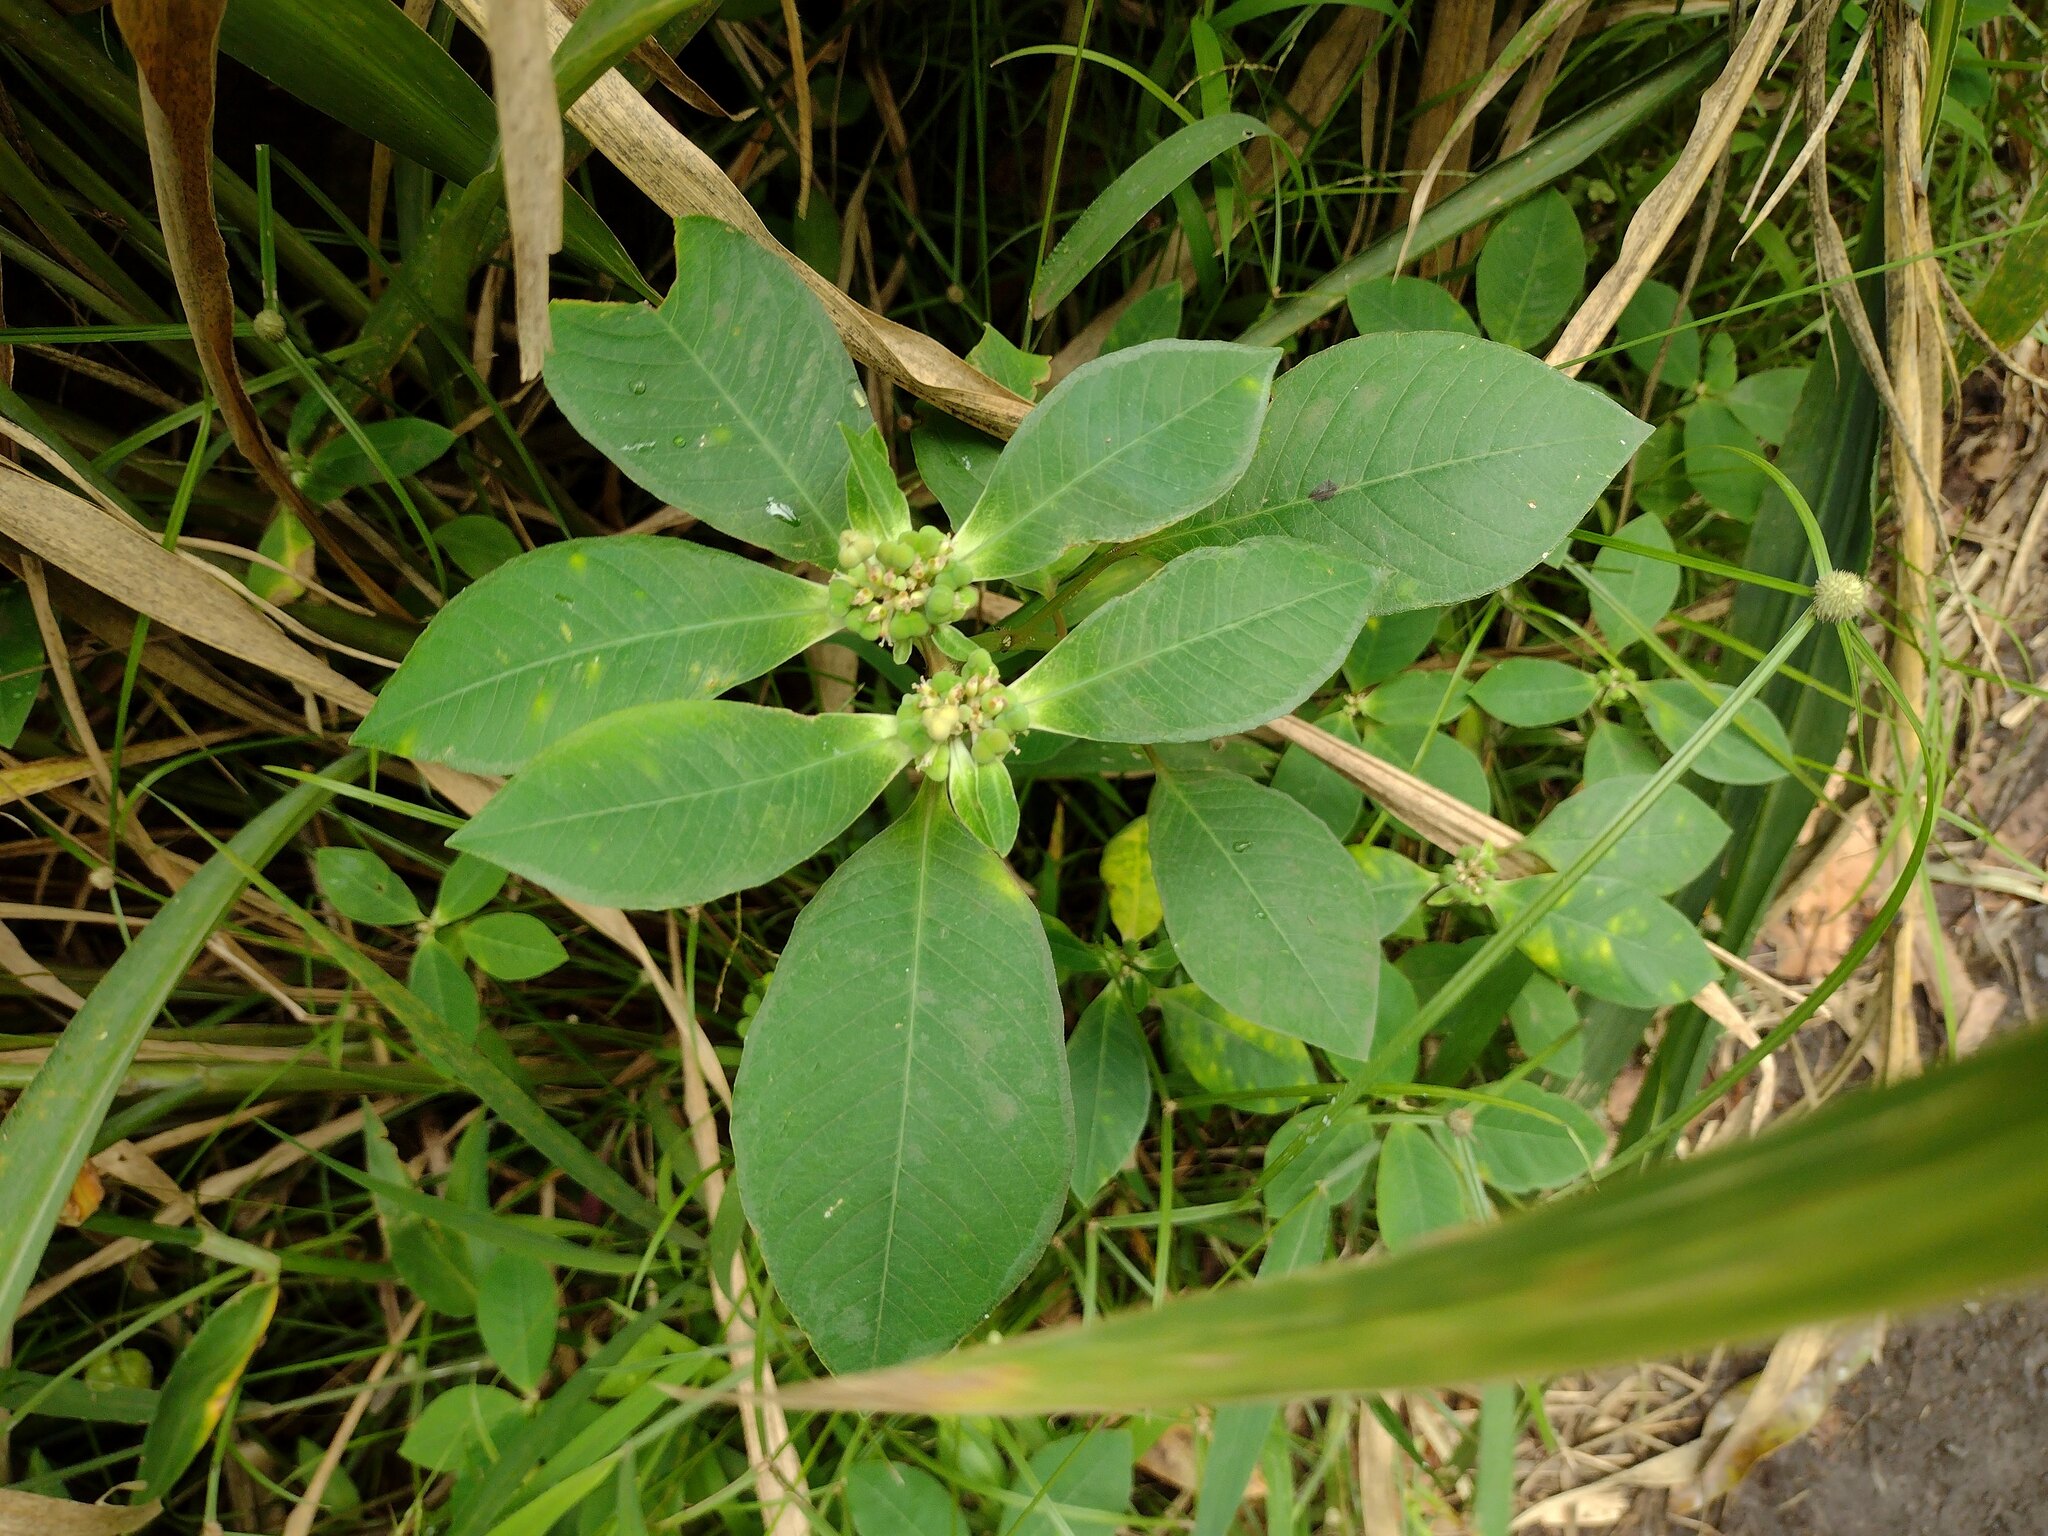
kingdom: Plantae
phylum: Tracheophyta
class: Magnoliopsida
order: Malpighiales
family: Euphorbiaceae
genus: Euphorbia
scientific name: Euphorbia heterophylla
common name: Mexican fireplant
